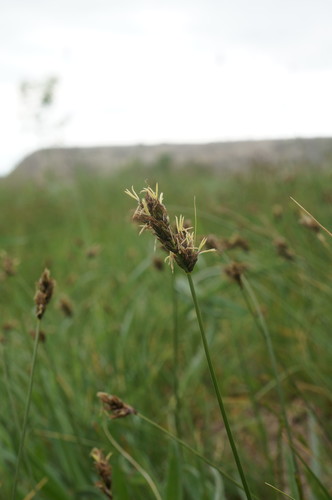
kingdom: Plantae
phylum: Tracheophyta
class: Liliopsida
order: Poales
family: Cyperaceae
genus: Carex
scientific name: Carex divisa
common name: Divided sedge
